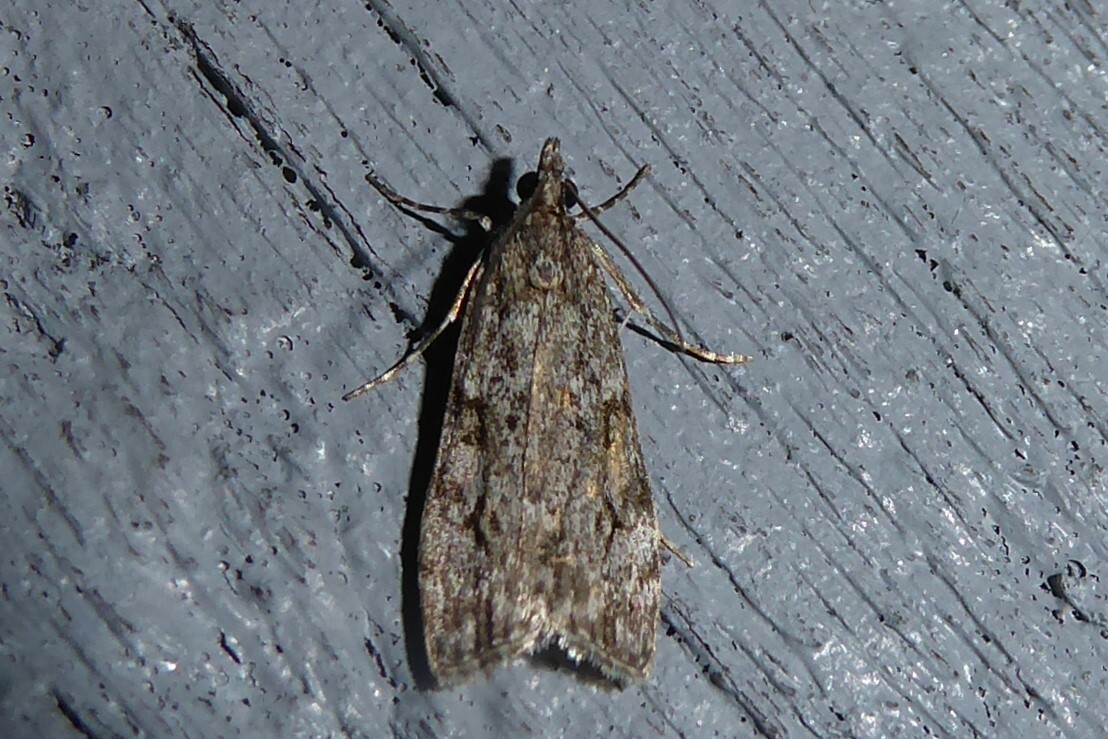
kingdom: Animalia
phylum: Arthropoda
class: Insecta
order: Lepidoptera
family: Crambidae
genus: Eudonia
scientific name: Eudonia bisinualis
